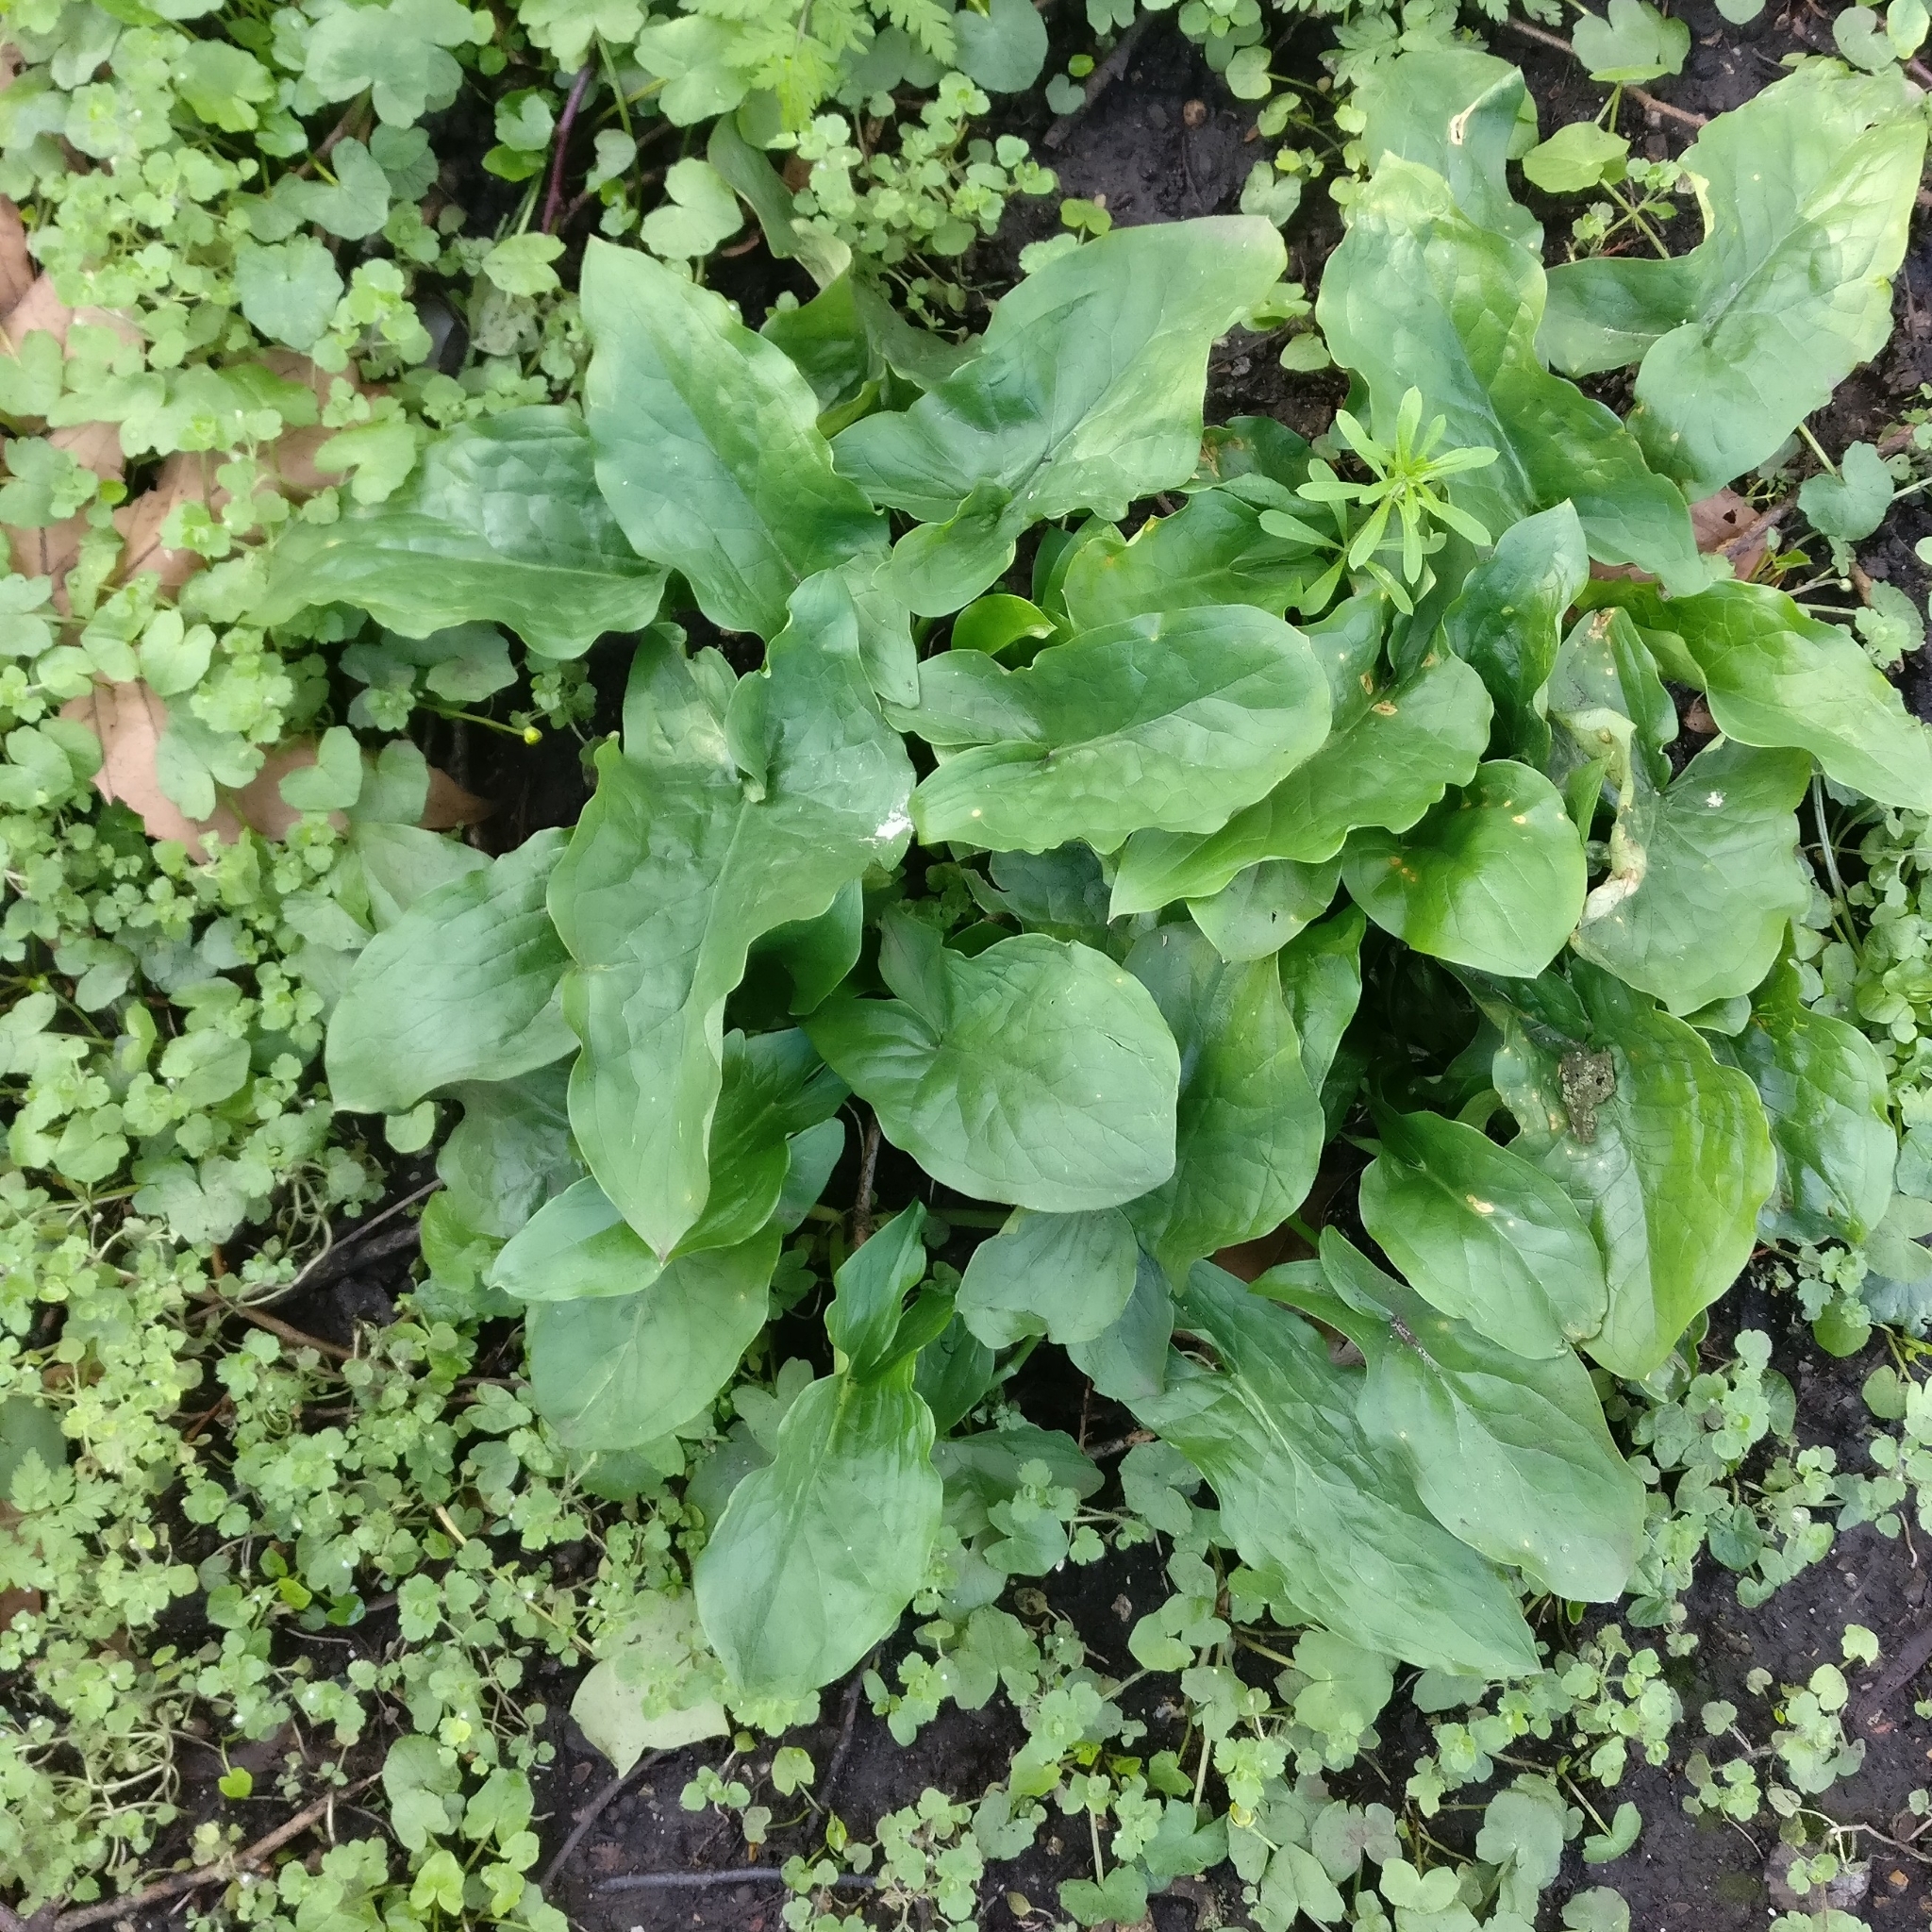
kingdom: Plantae
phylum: Tracheophyta
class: Liliopsida
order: Alismatales
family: Araceae
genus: Arum
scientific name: Arum maculatum
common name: Lords-and-ladies
